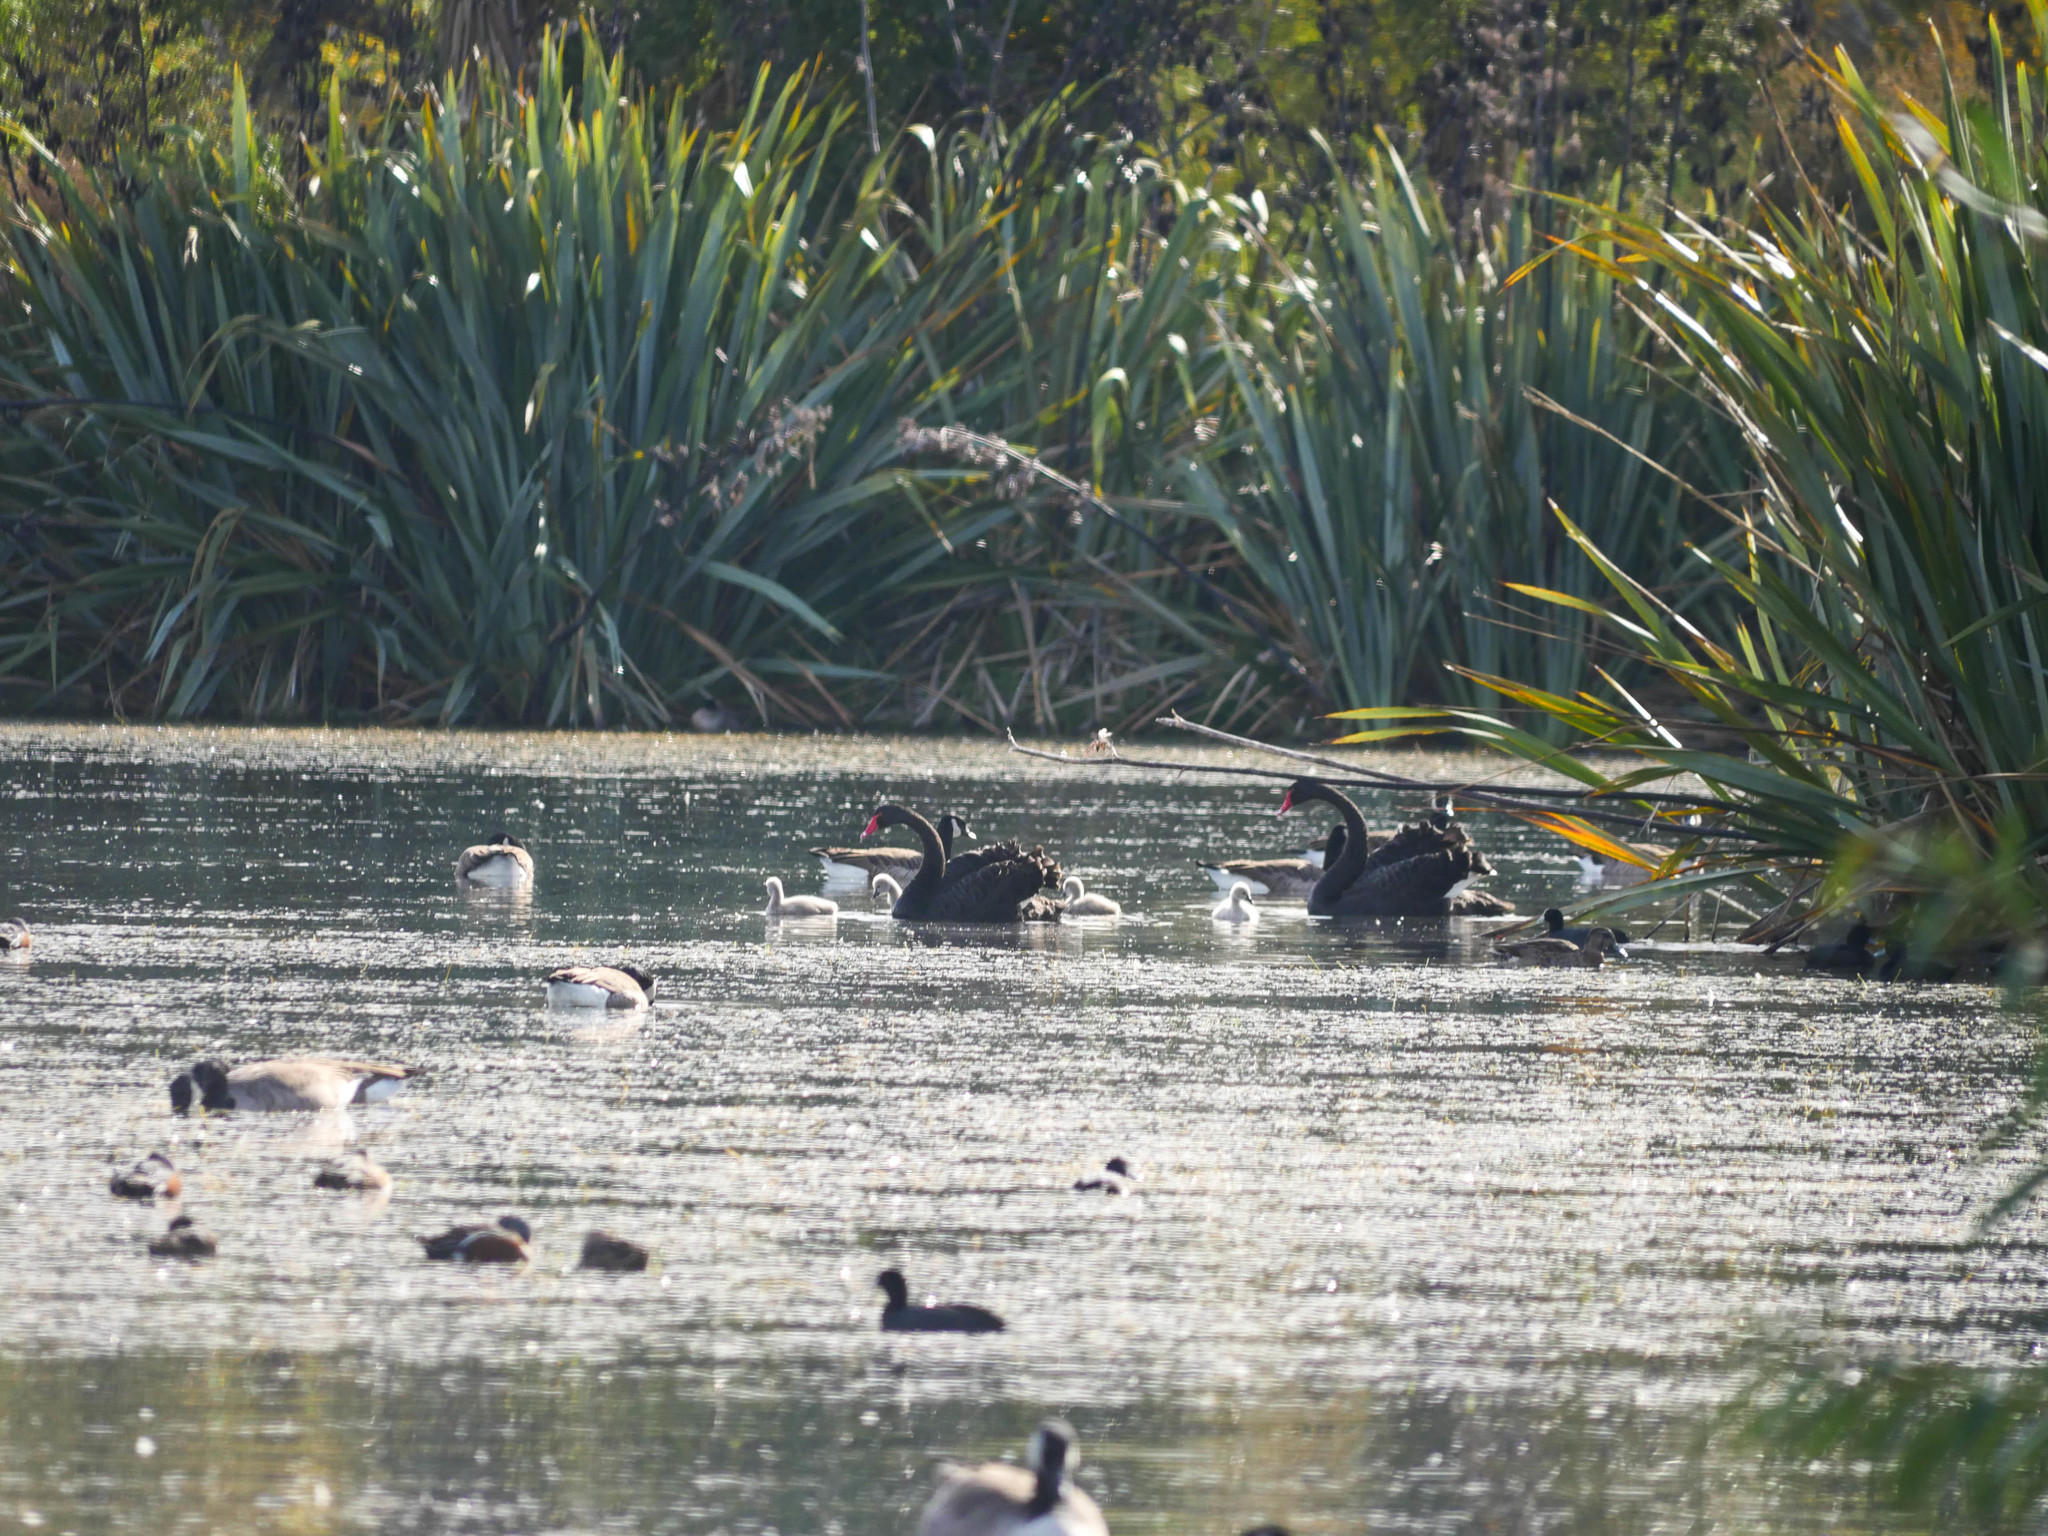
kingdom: Animalia
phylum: Chordata
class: Aves
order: Anseriformes
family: Anatidae
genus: Cygnus
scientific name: Cygnus atratus
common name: Black swan
